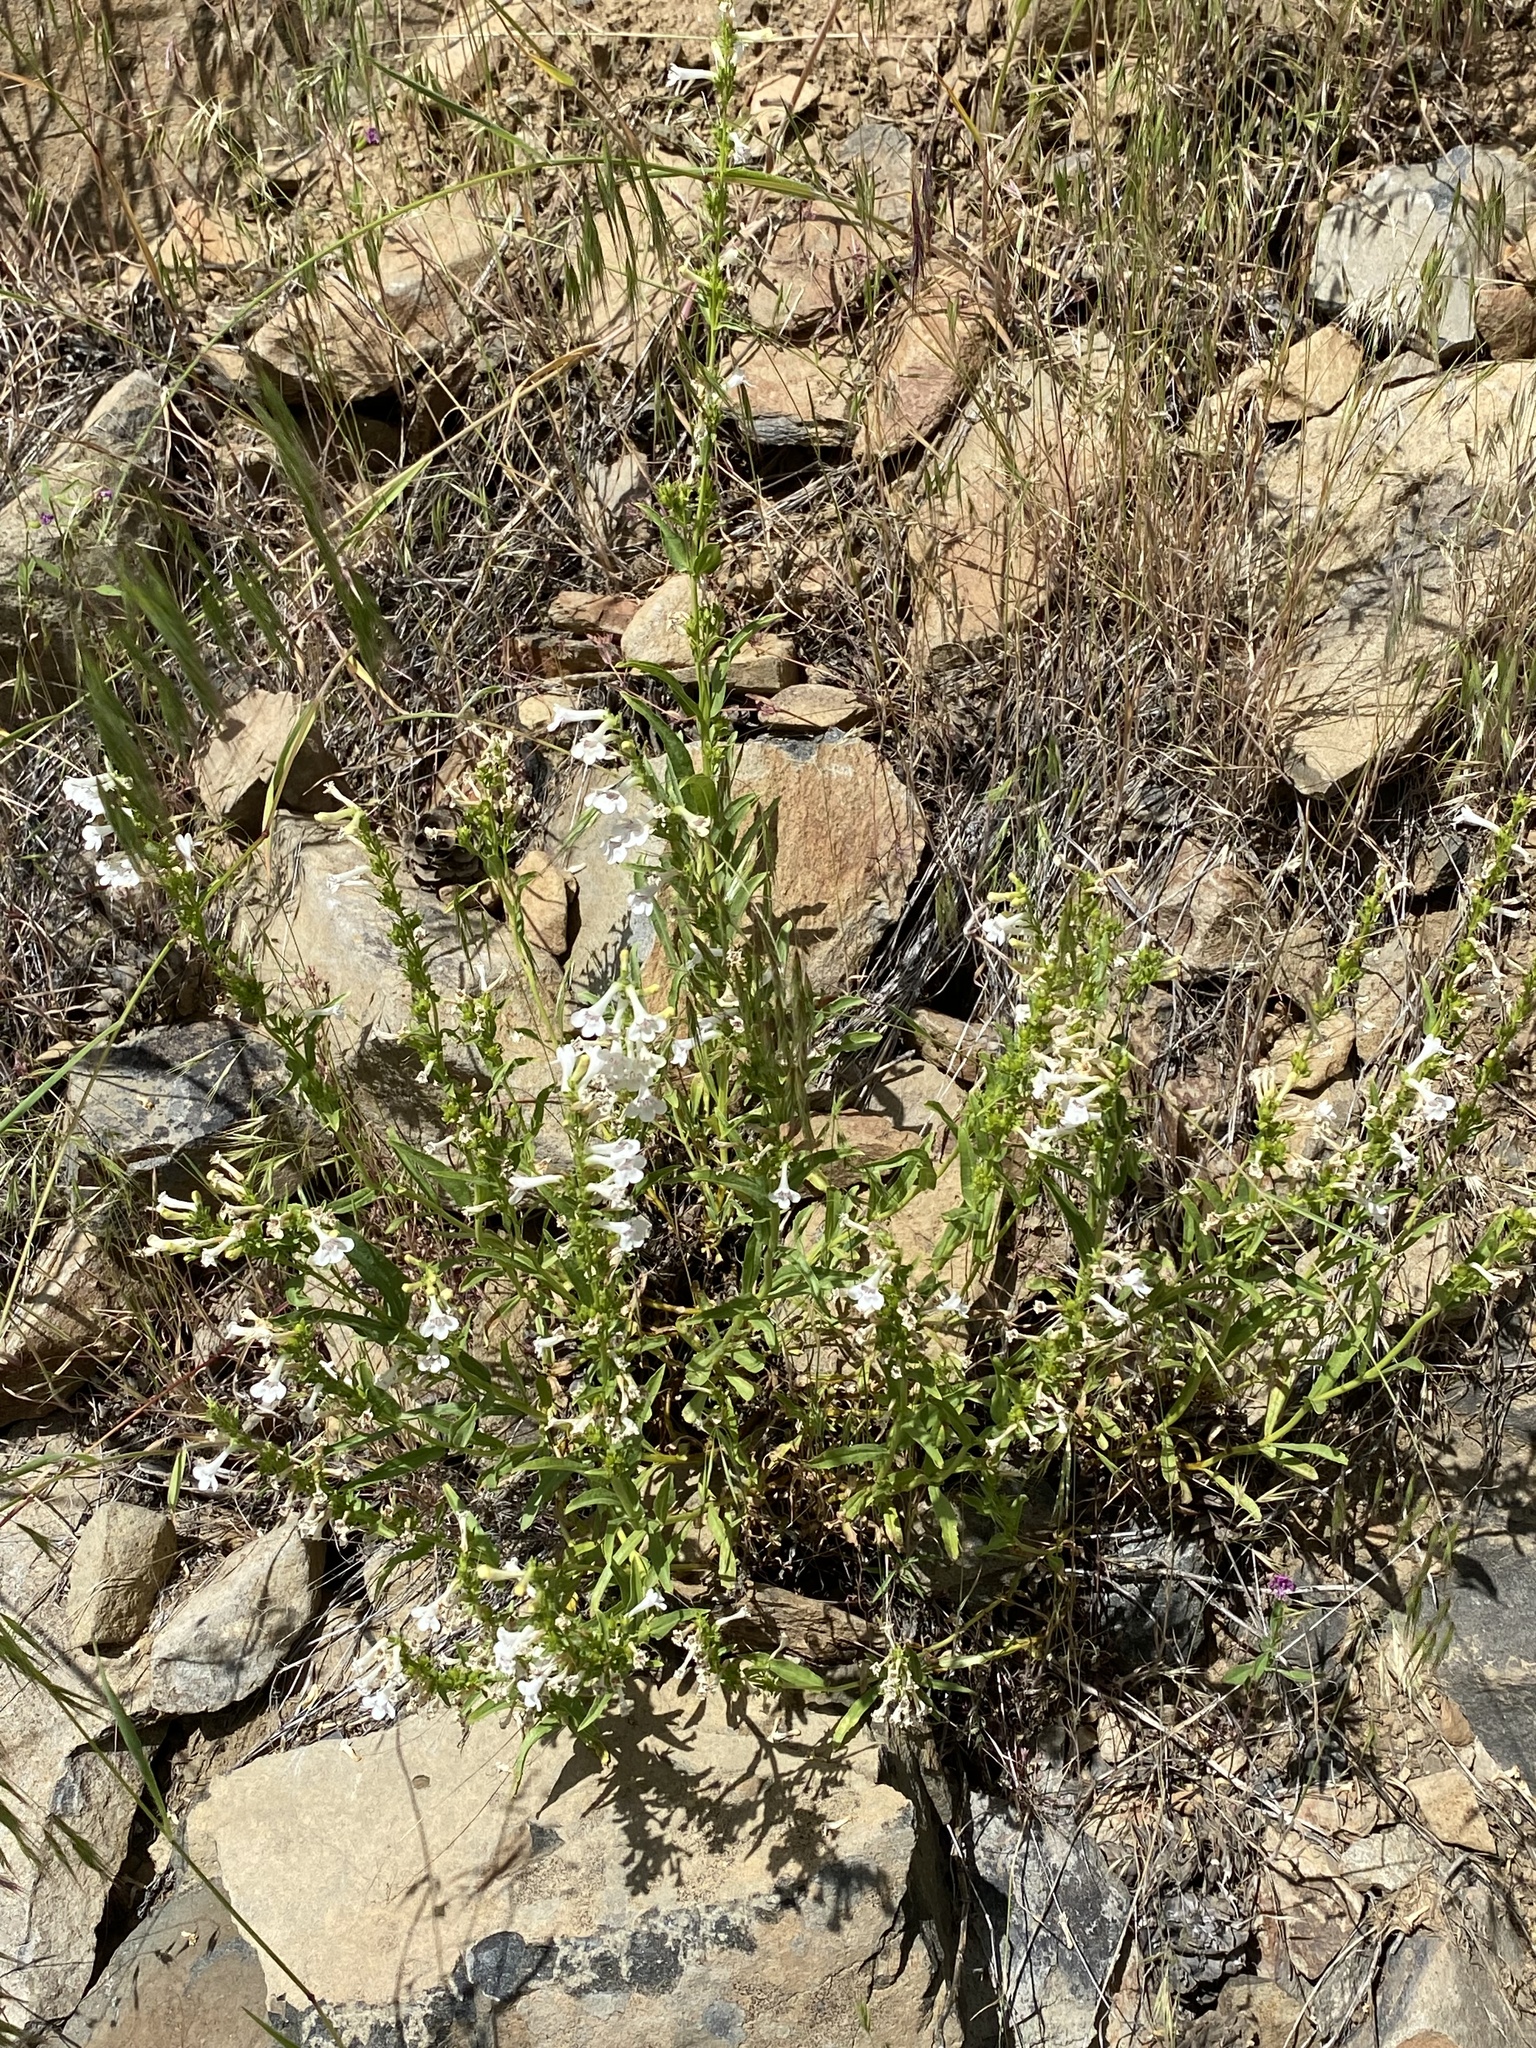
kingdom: Plantae
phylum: Tracheophyta
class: Magnoliopsida
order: Lamiales
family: Plantaginaceae
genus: Penstemon
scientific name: Penstemon deustus
